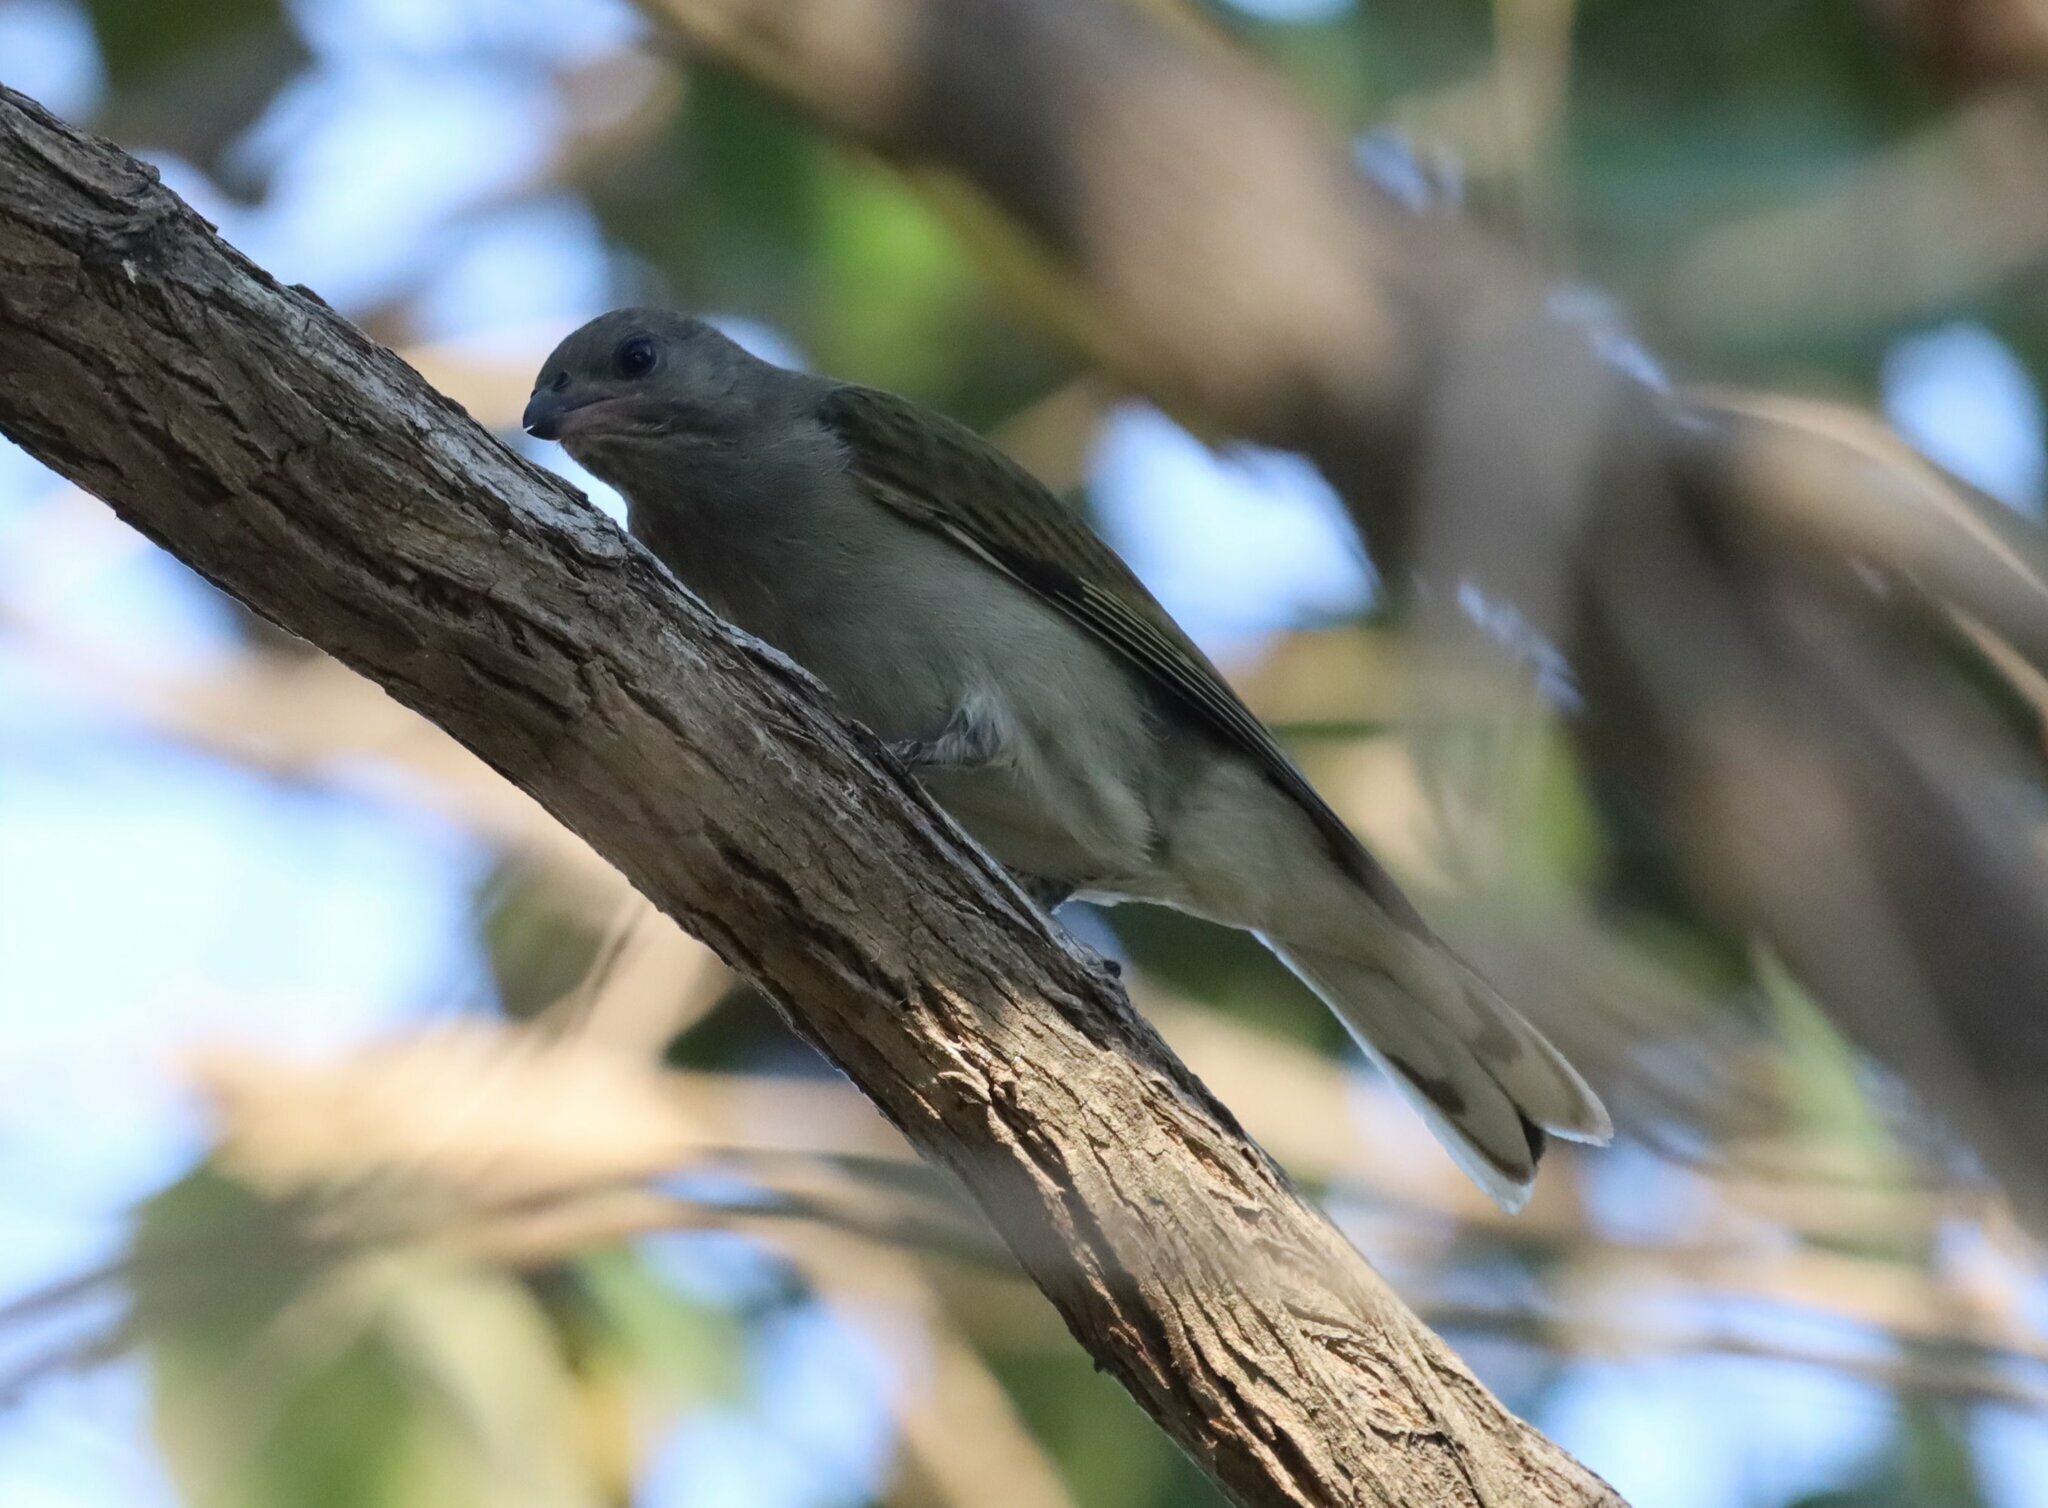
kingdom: Animalia
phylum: Chordata
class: Aves
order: Piciformes
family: Indicatoridae
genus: Indicator
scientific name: Indicator minor
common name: Lesser honeyguide
